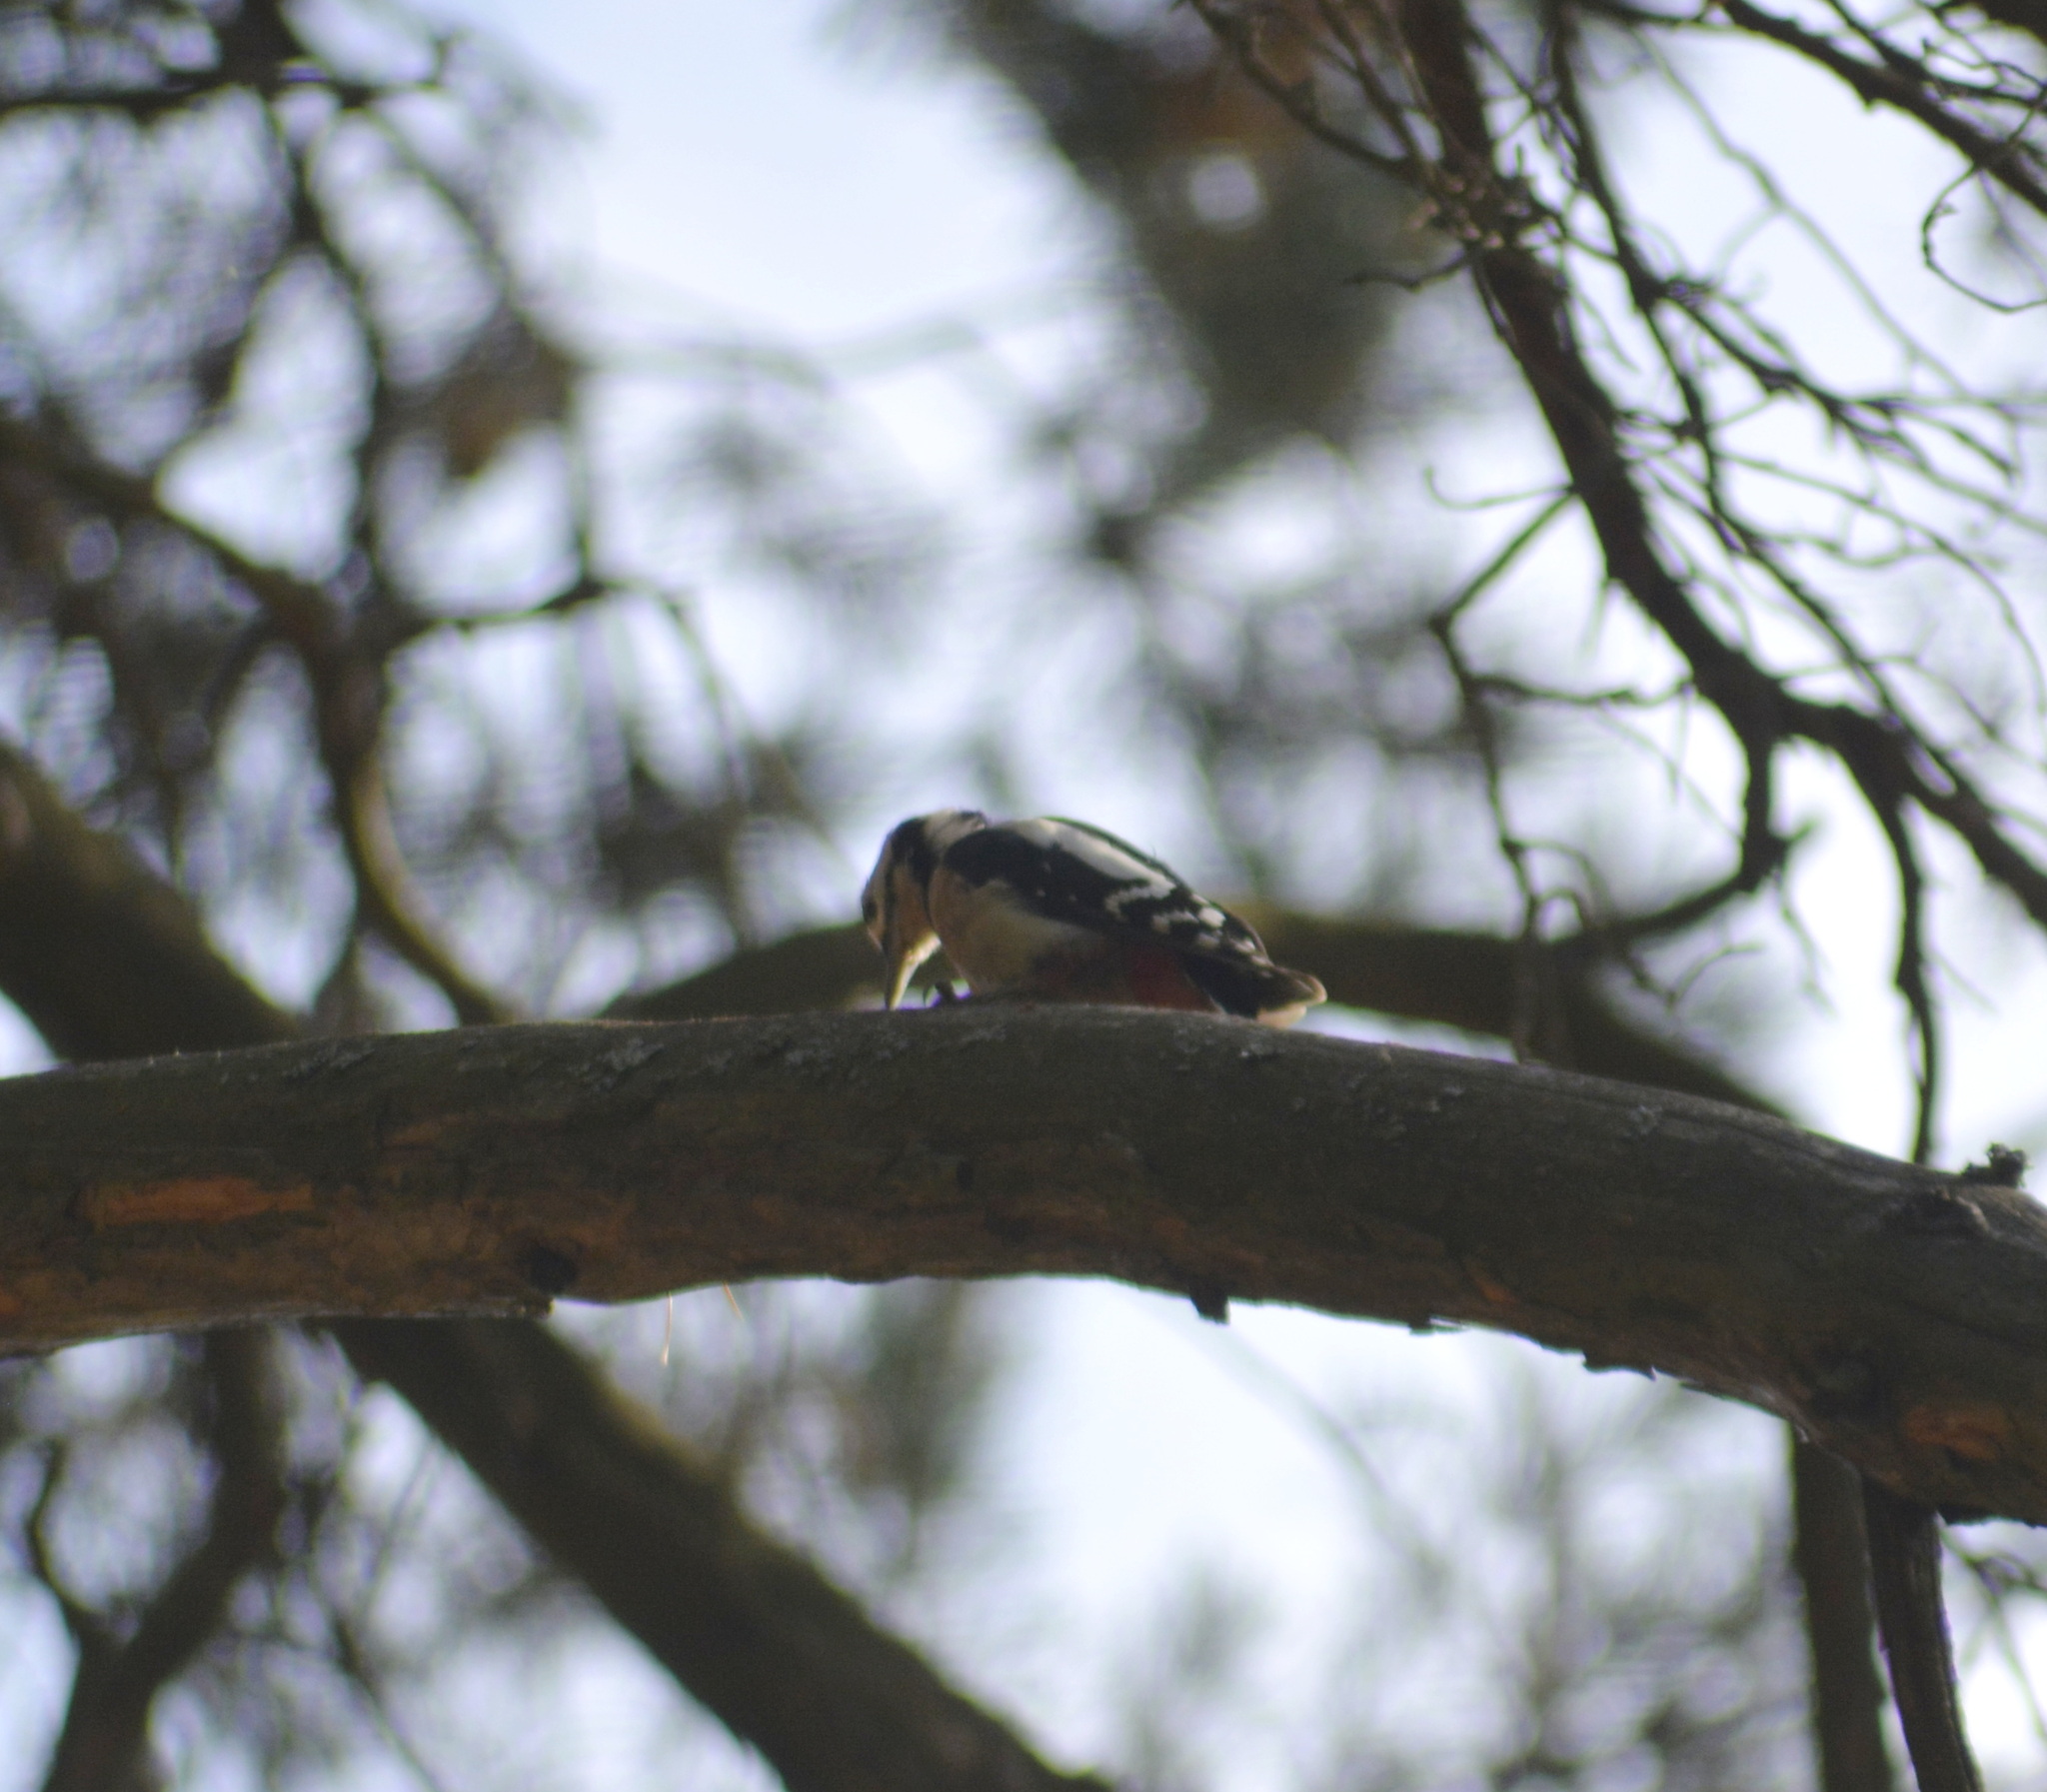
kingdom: Animalia
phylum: Chordata
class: Aves
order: Piciformes
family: Picidae
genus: Dendrocopos
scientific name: Dendrocopos major
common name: Great spotted woodpecker
